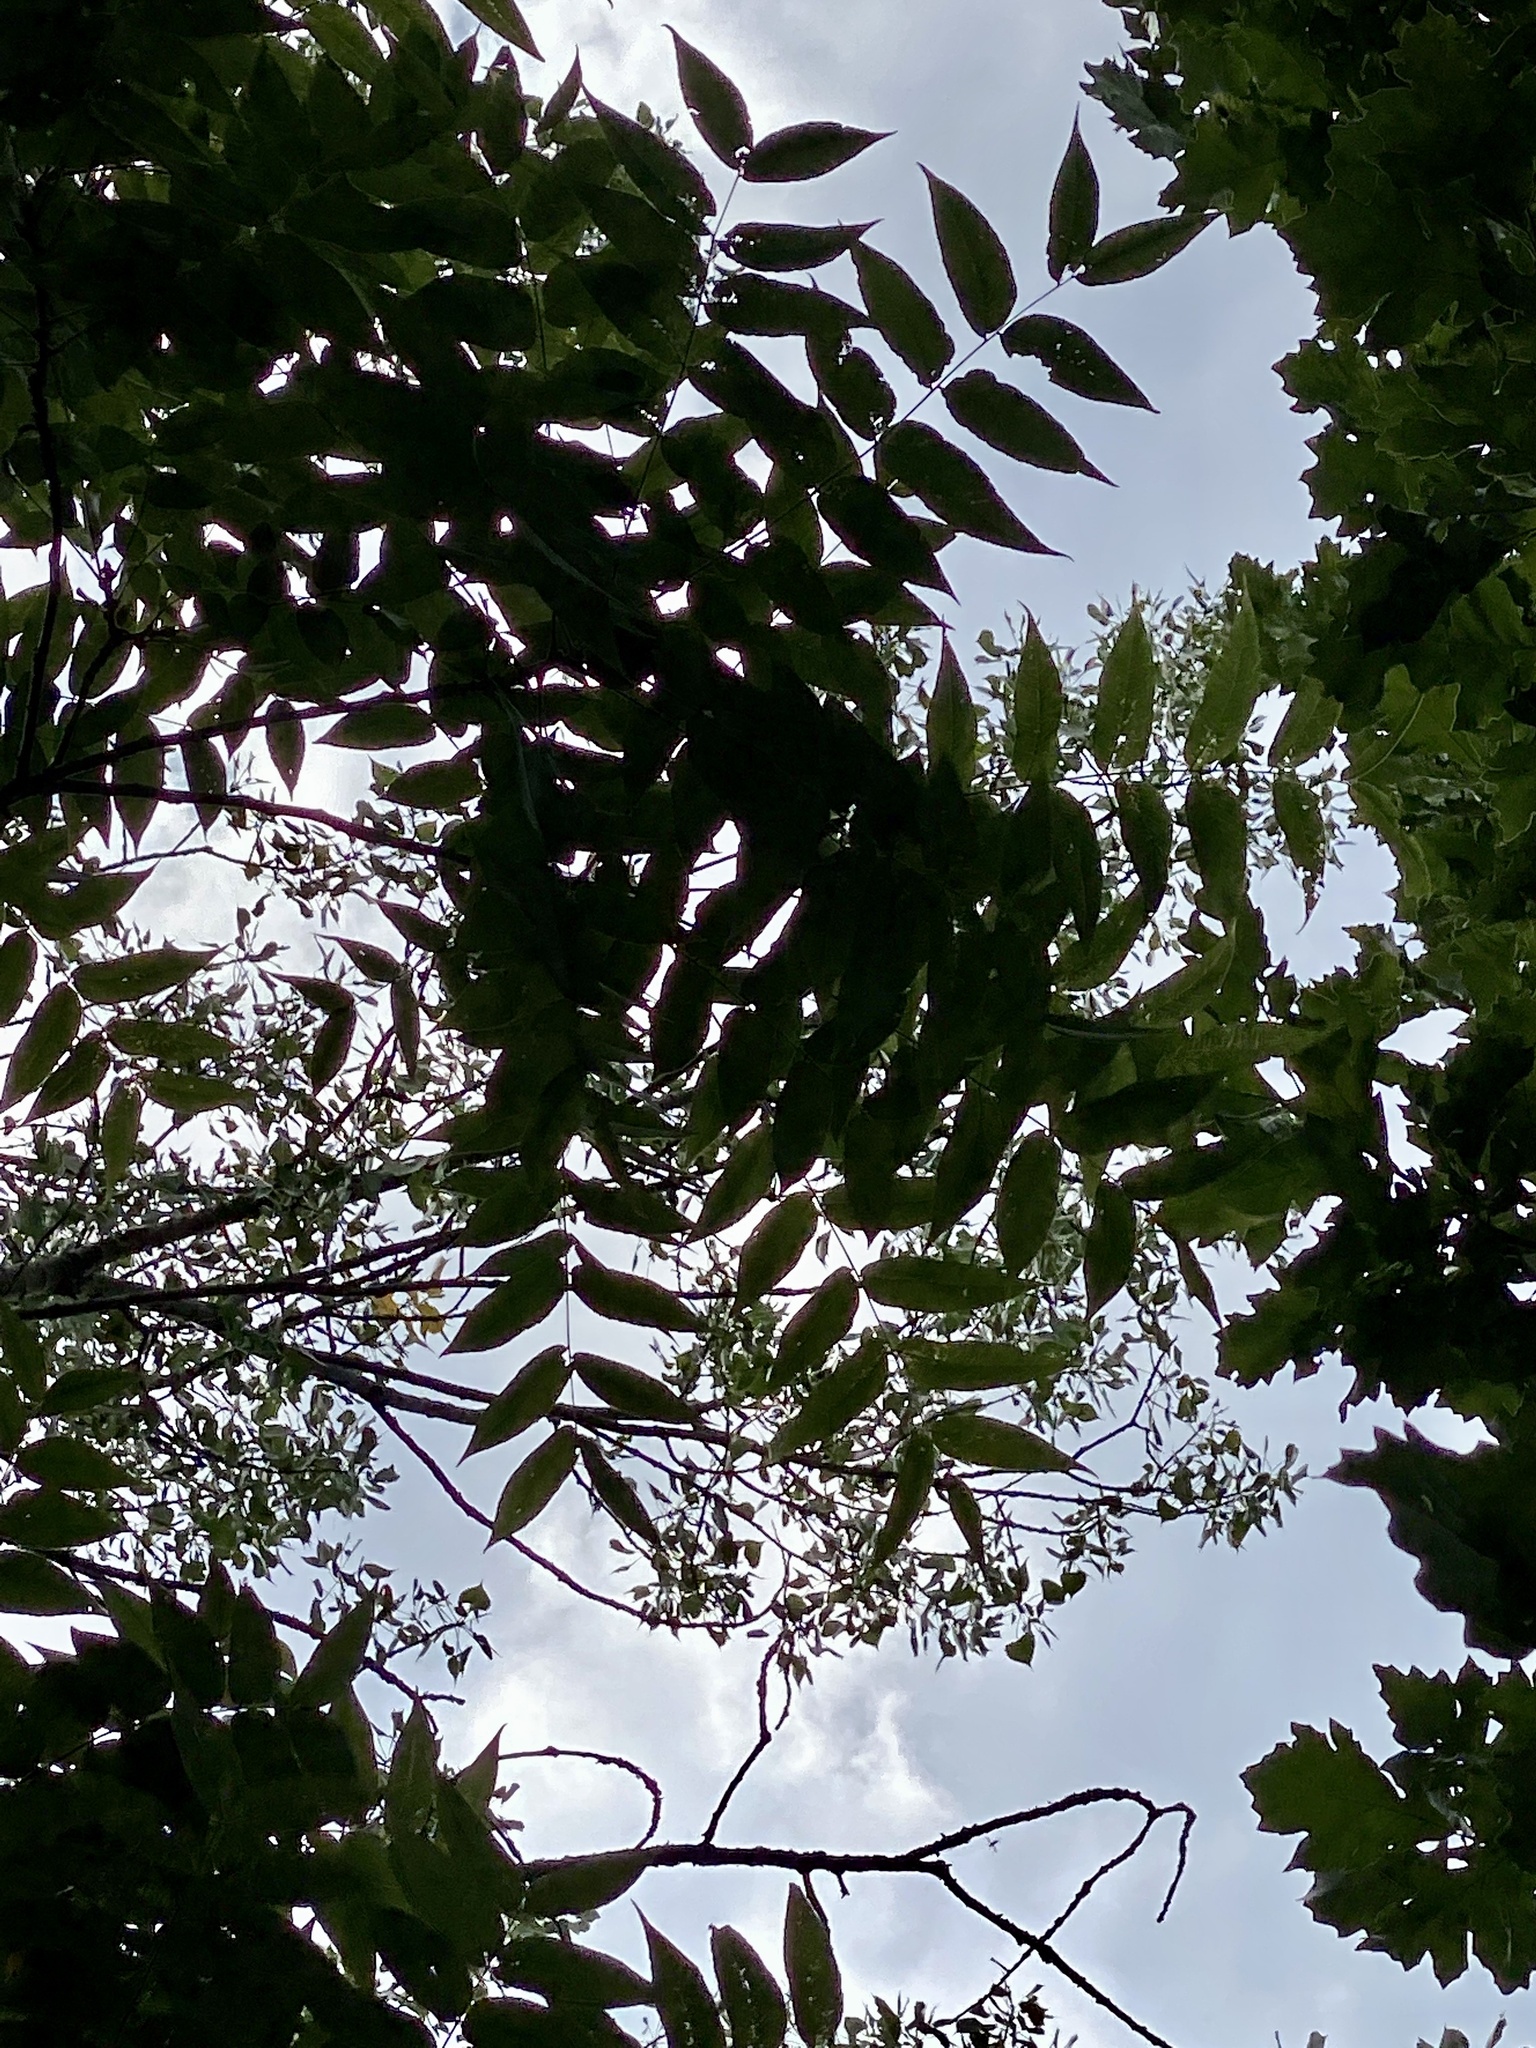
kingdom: Plantae
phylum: Tracheophyta
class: Magnoliopsida
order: Fagales
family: Juglandaceae
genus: Juglans
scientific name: Juglans nigra
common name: Black walnut
